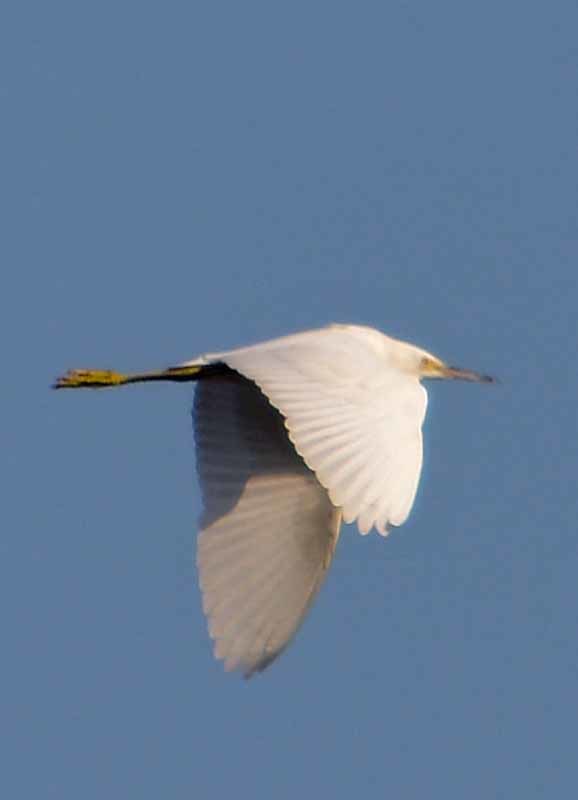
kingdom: Animalia
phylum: Chordata
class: Aves
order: Pelecaniformes
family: Ardeidae
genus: Egretta
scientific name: Egretta thula
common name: Snowy egret
